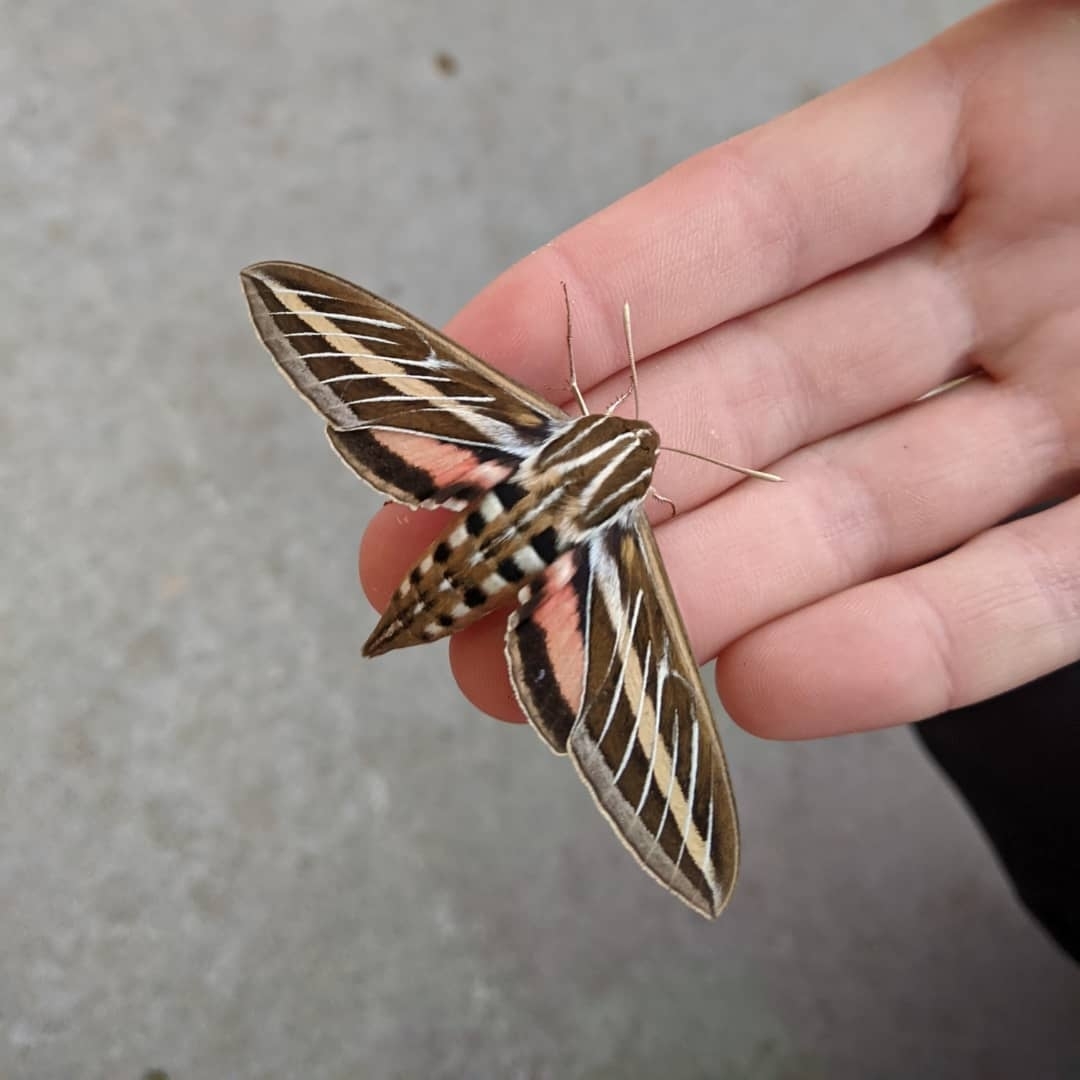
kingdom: Animalia
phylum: Arthropoda
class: Insecta
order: Lepidoptera
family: Sphingidae
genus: Hyles
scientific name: Hyles lineata
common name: White-lined sphinx
